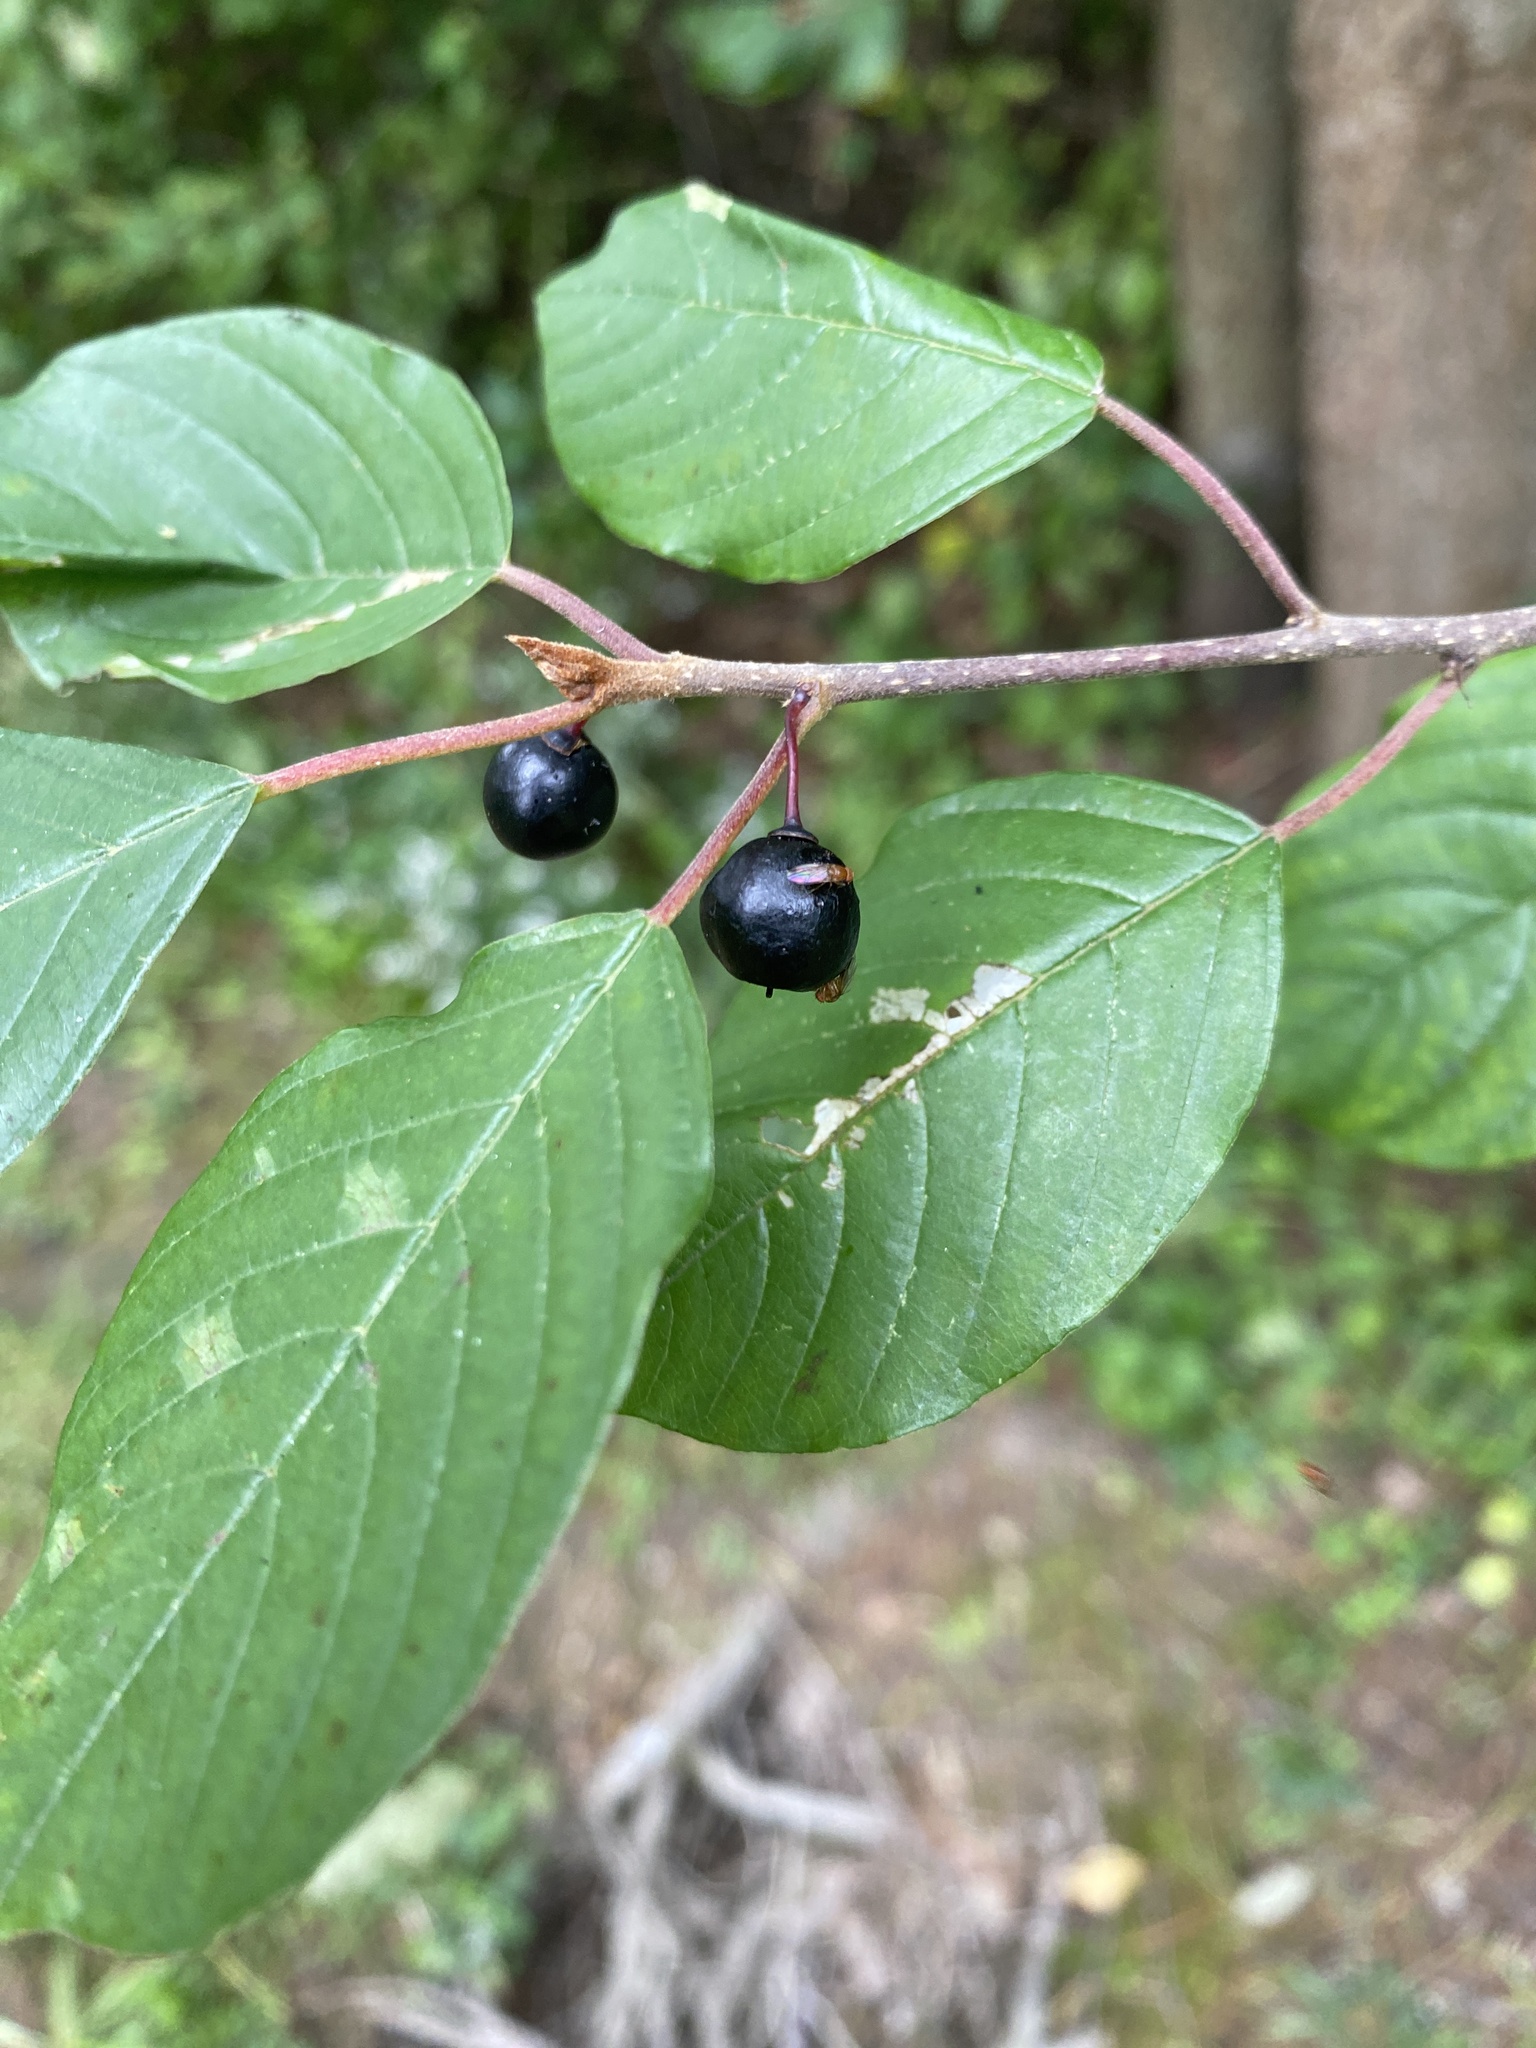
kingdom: Plantae
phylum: Tracheophyta
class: Magnoliopsida
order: Rosales
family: Rhamnaceae
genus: Frangula
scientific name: Frangula alnus
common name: Alder buckthorn
